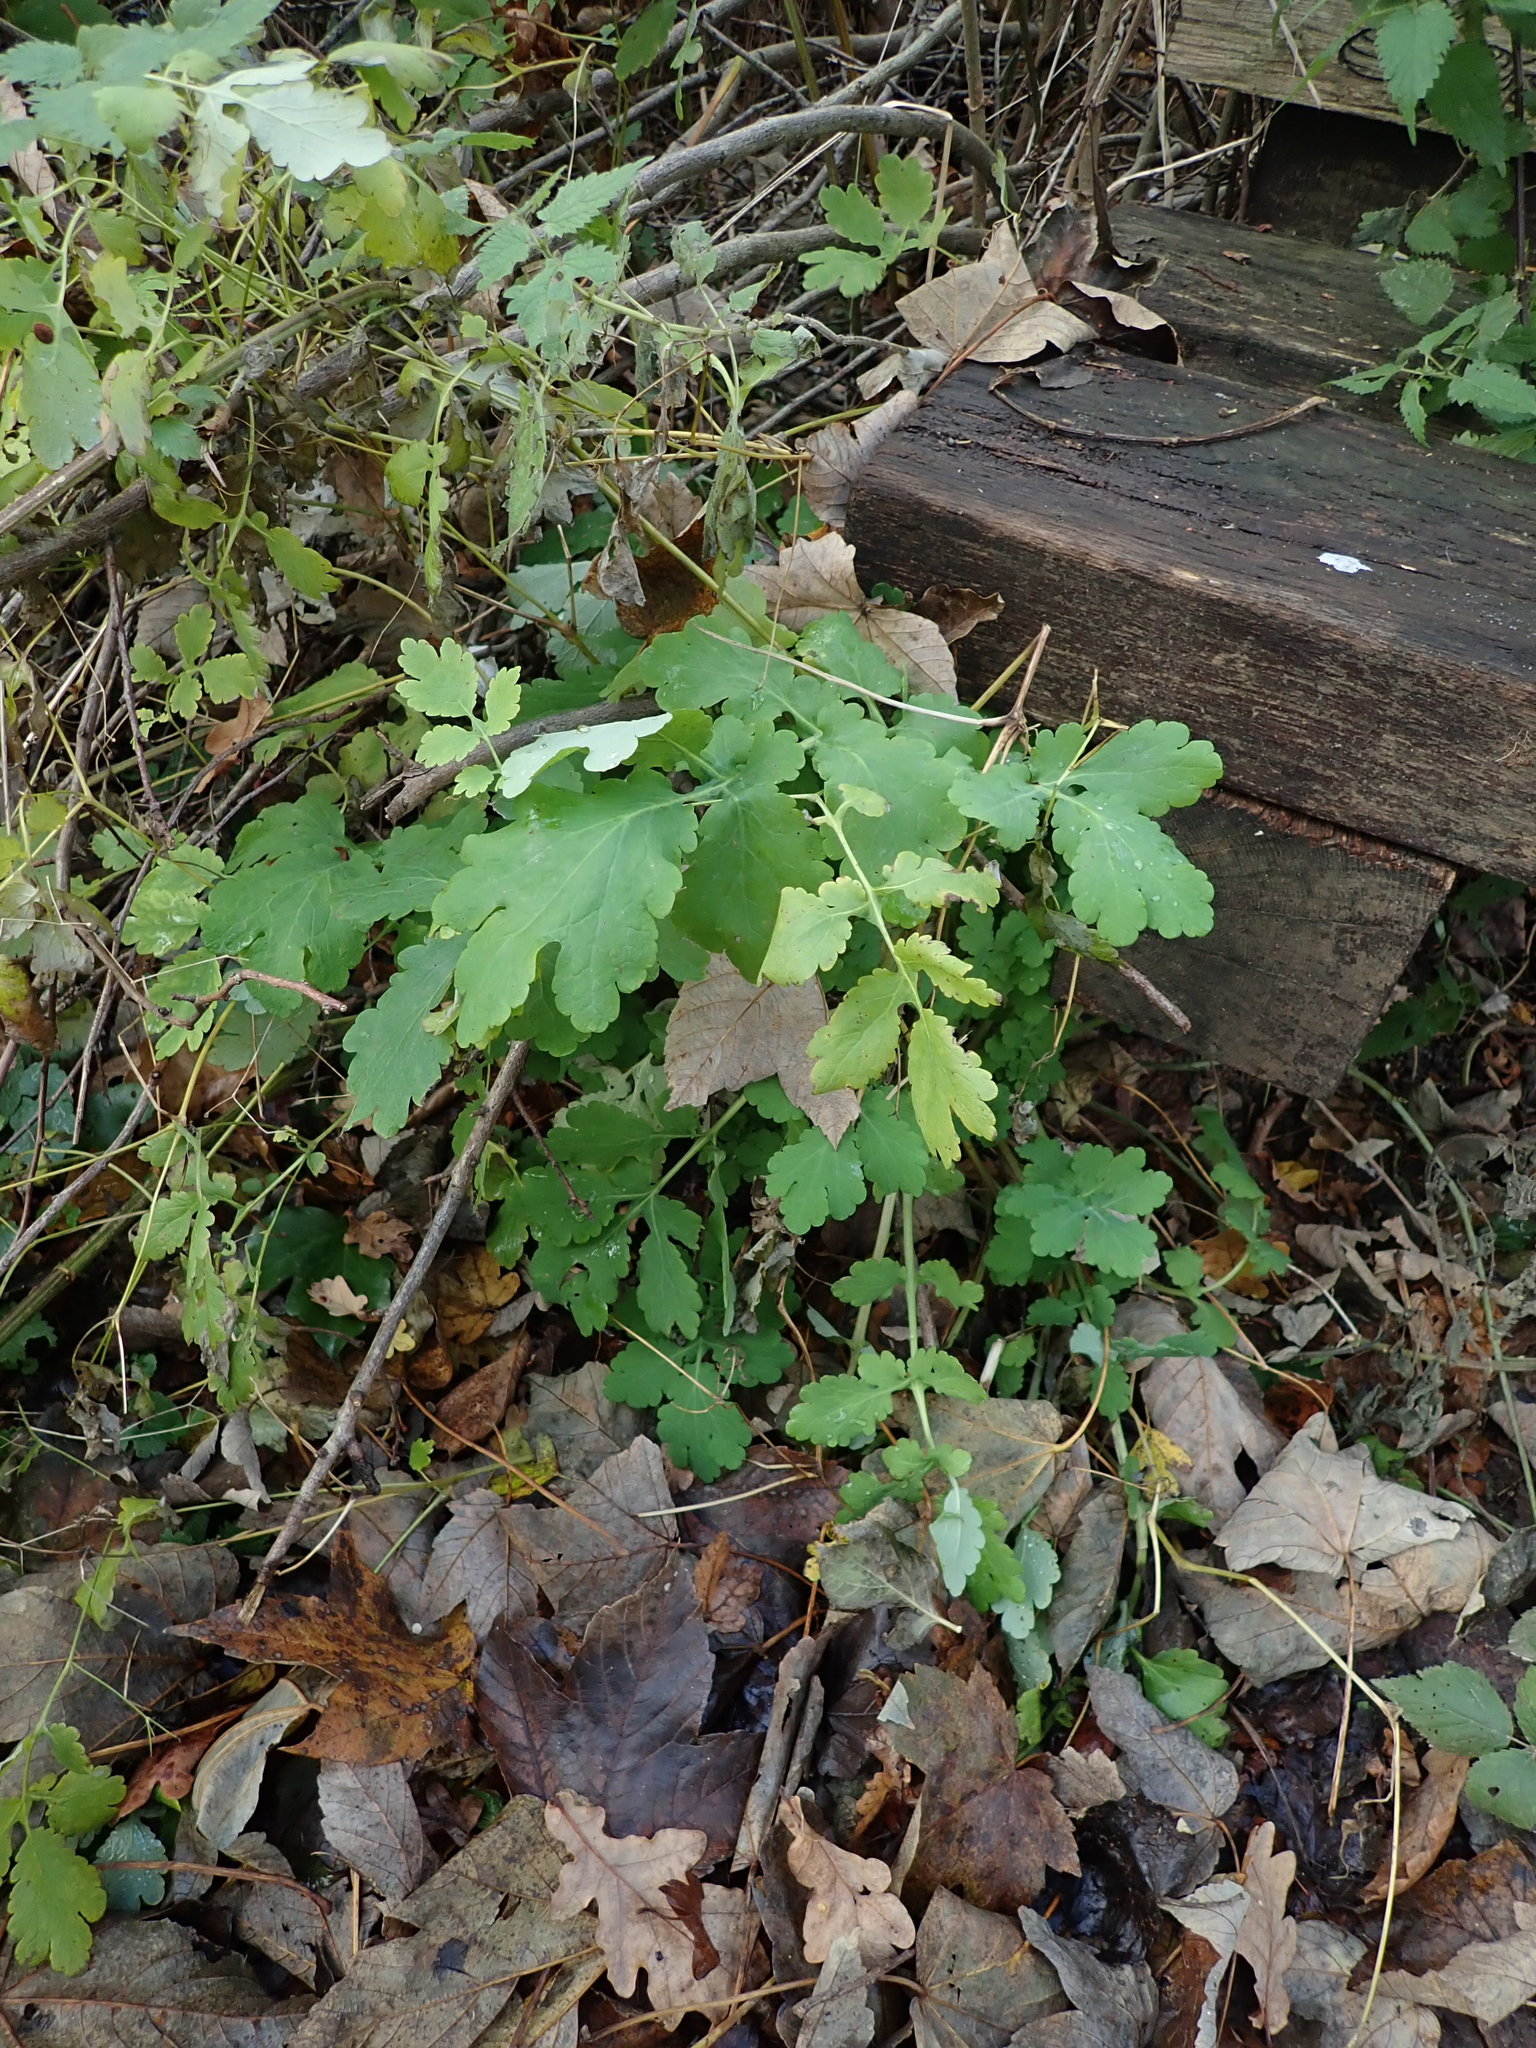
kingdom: Plantae
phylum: Tracheophyta
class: Magnoliopsida
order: Ranunculales
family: Papaveraceae
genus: Chelidonium
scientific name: Chelidonium majus
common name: Greater celandine
